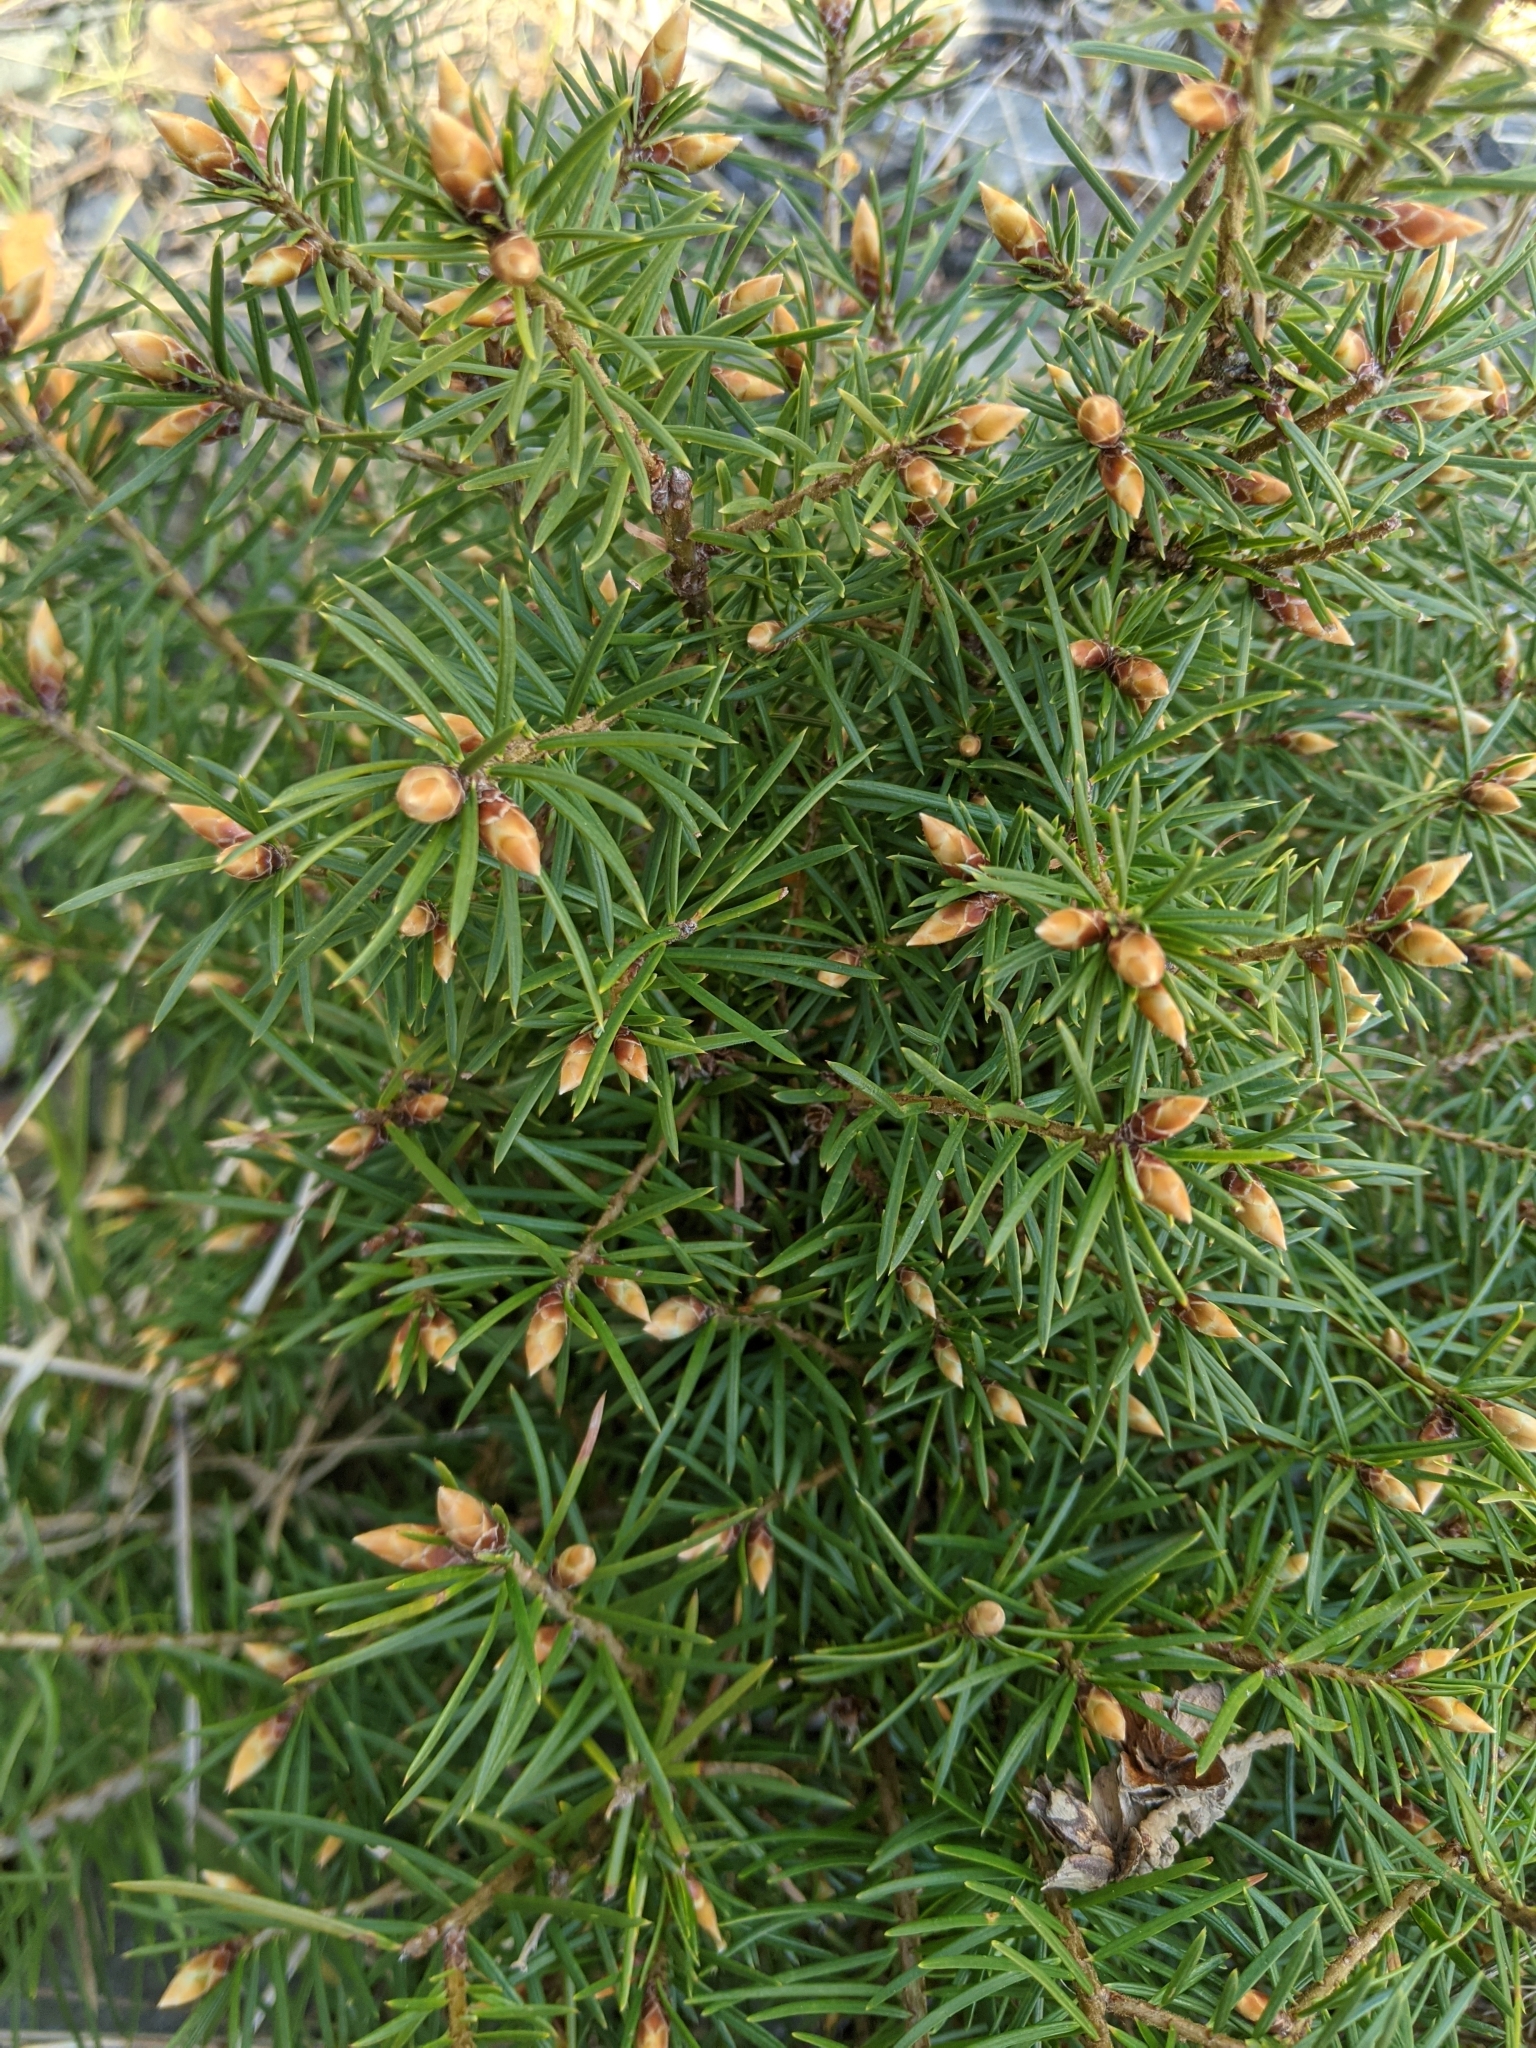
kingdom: Plantae
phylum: Tracheophyta
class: Pinopsida
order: Pinales
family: Pinaceae
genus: Pseudotsuga
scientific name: Pseudotsuga menziesii
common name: Douglas fir
